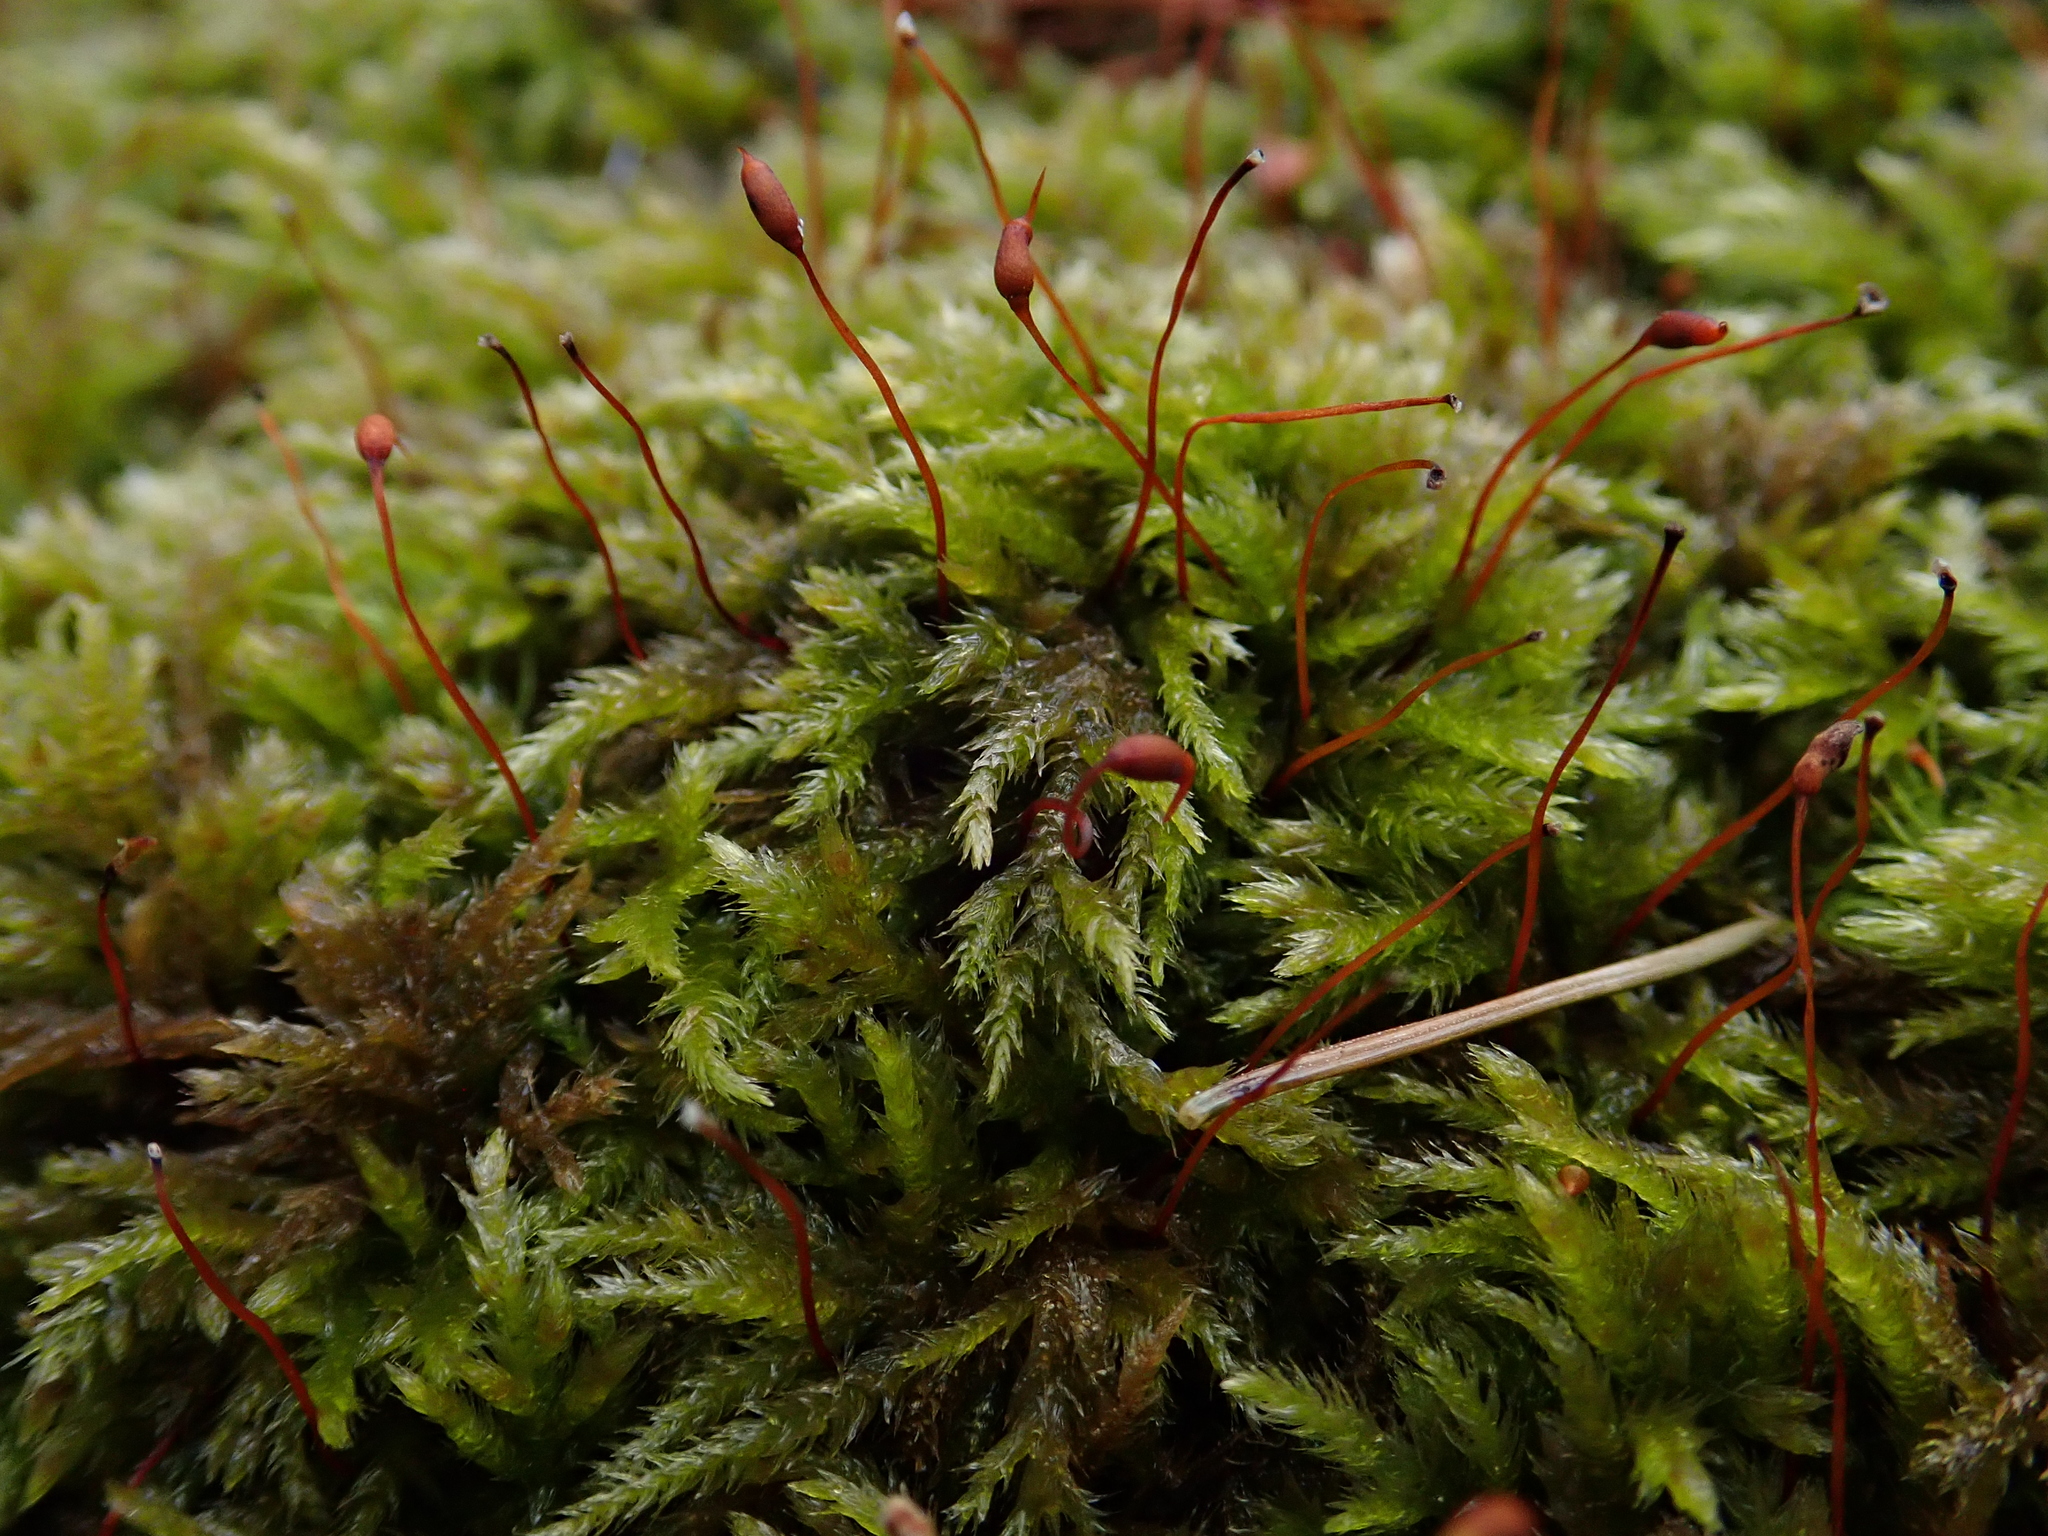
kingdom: Plantae
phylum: Bryophyta
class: Bryopsida
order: Hypnales
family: Brachytheciaceae
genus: Plasteurhynchium
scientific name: Plasteurhynchium striatulum
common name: Lesser striated feather-moss
